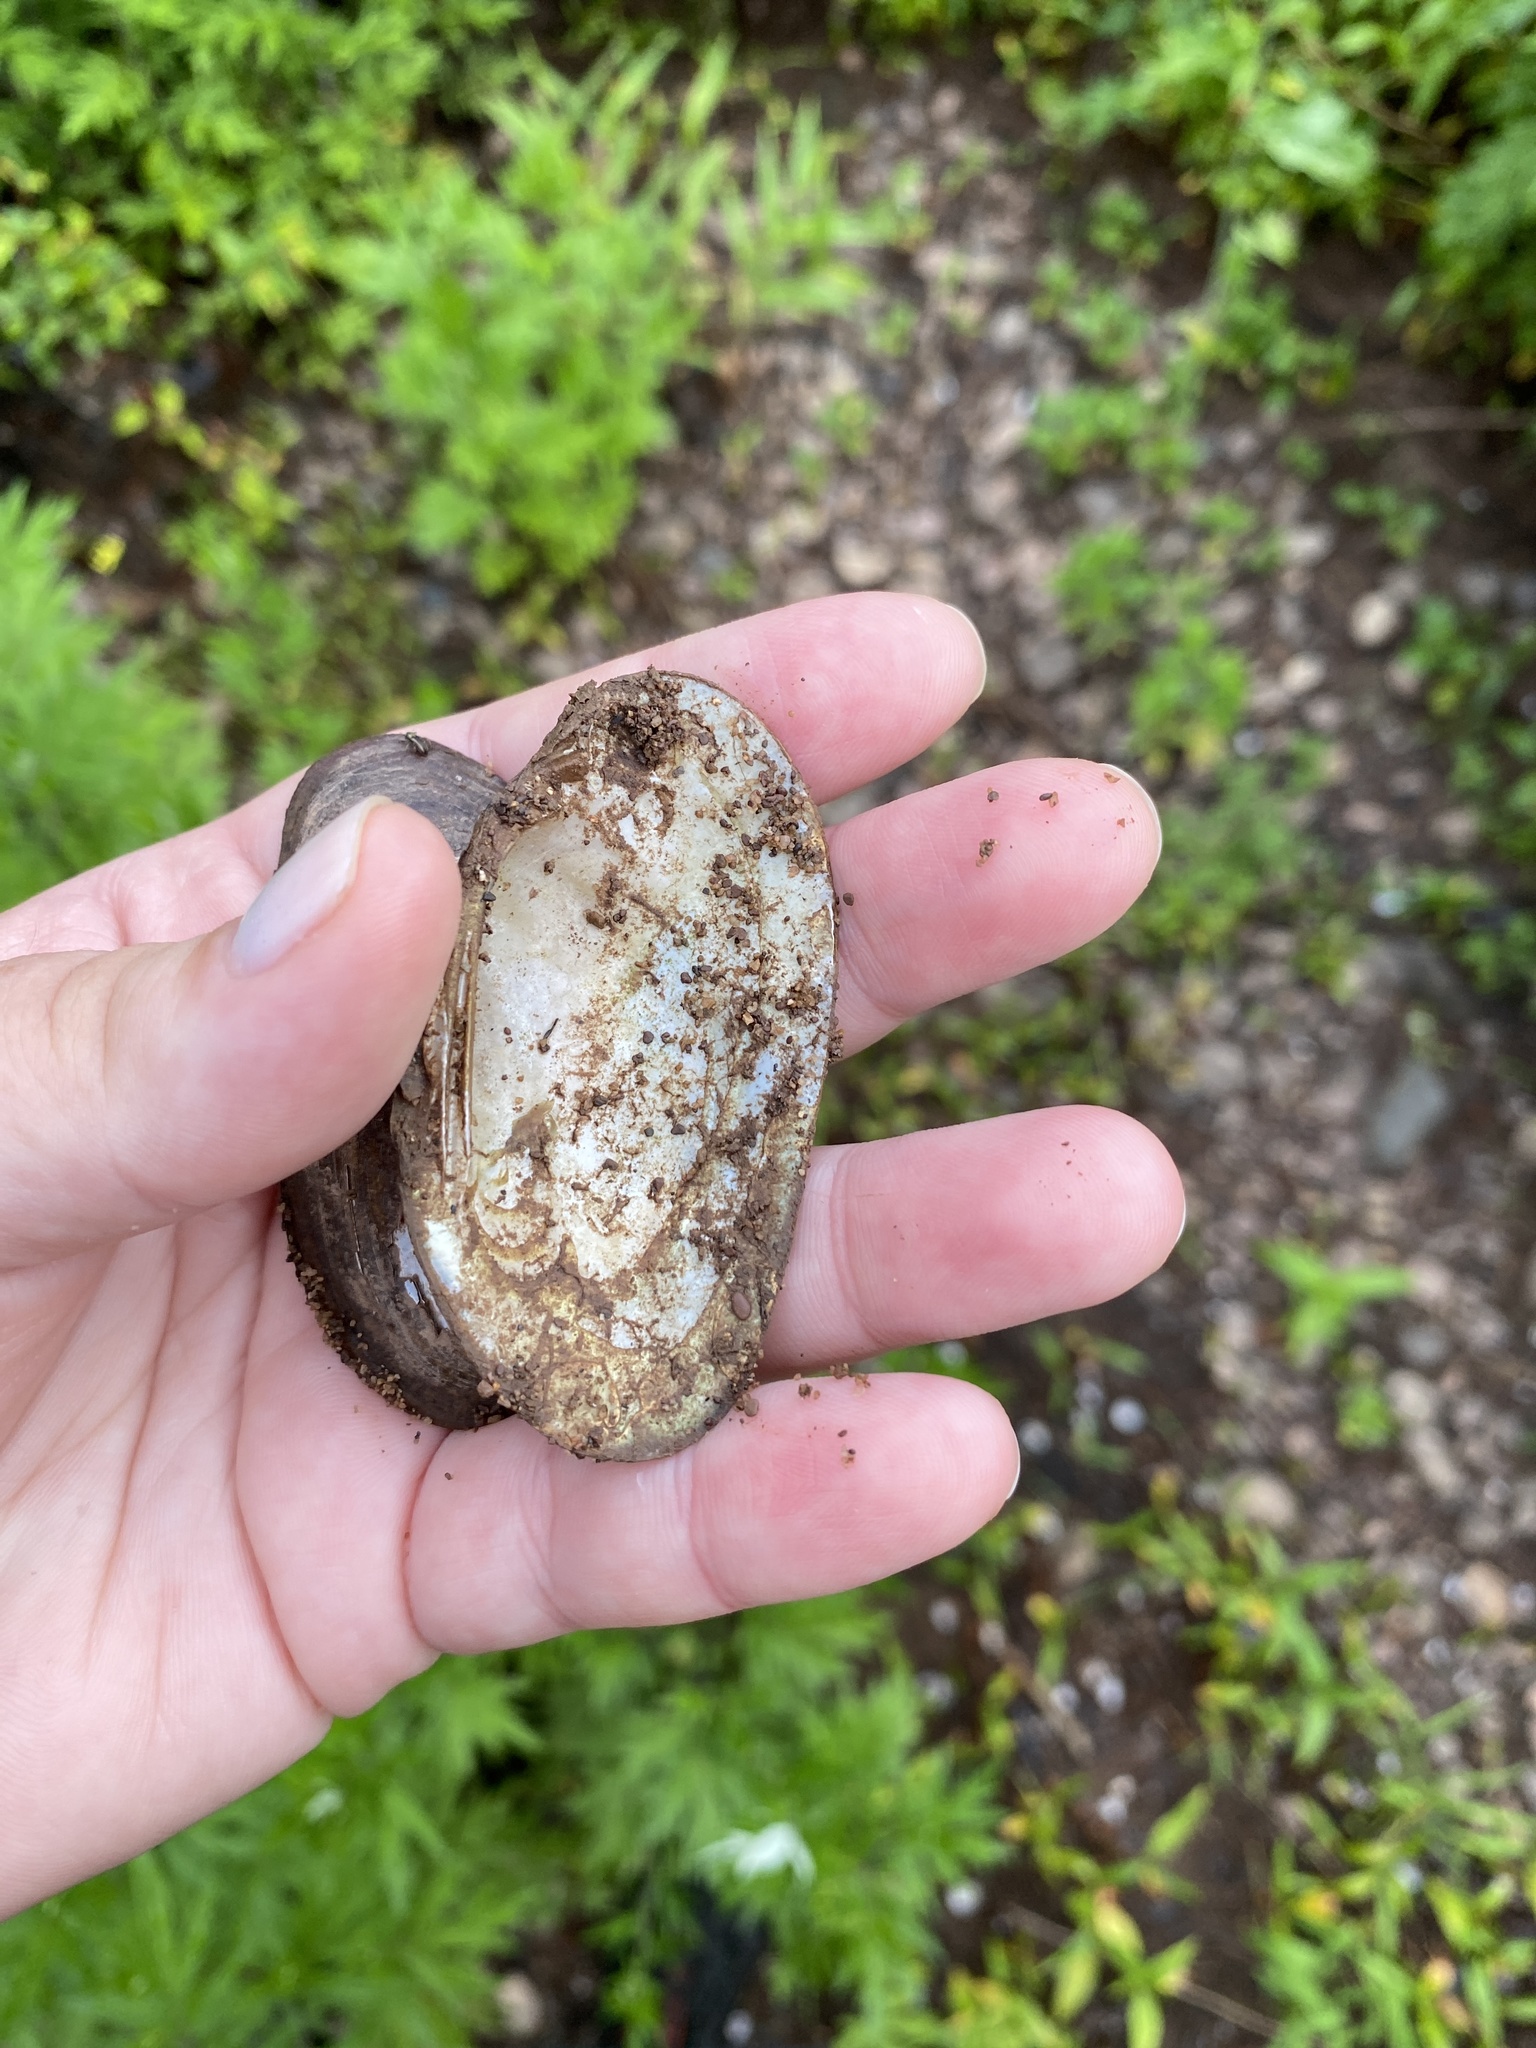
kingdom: Animalia
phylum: Mollusca
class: Bivalvia
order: Unionida
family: Unionidae
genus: Elliptio
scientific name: Elliptio complanata
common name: Eastern elliptio
